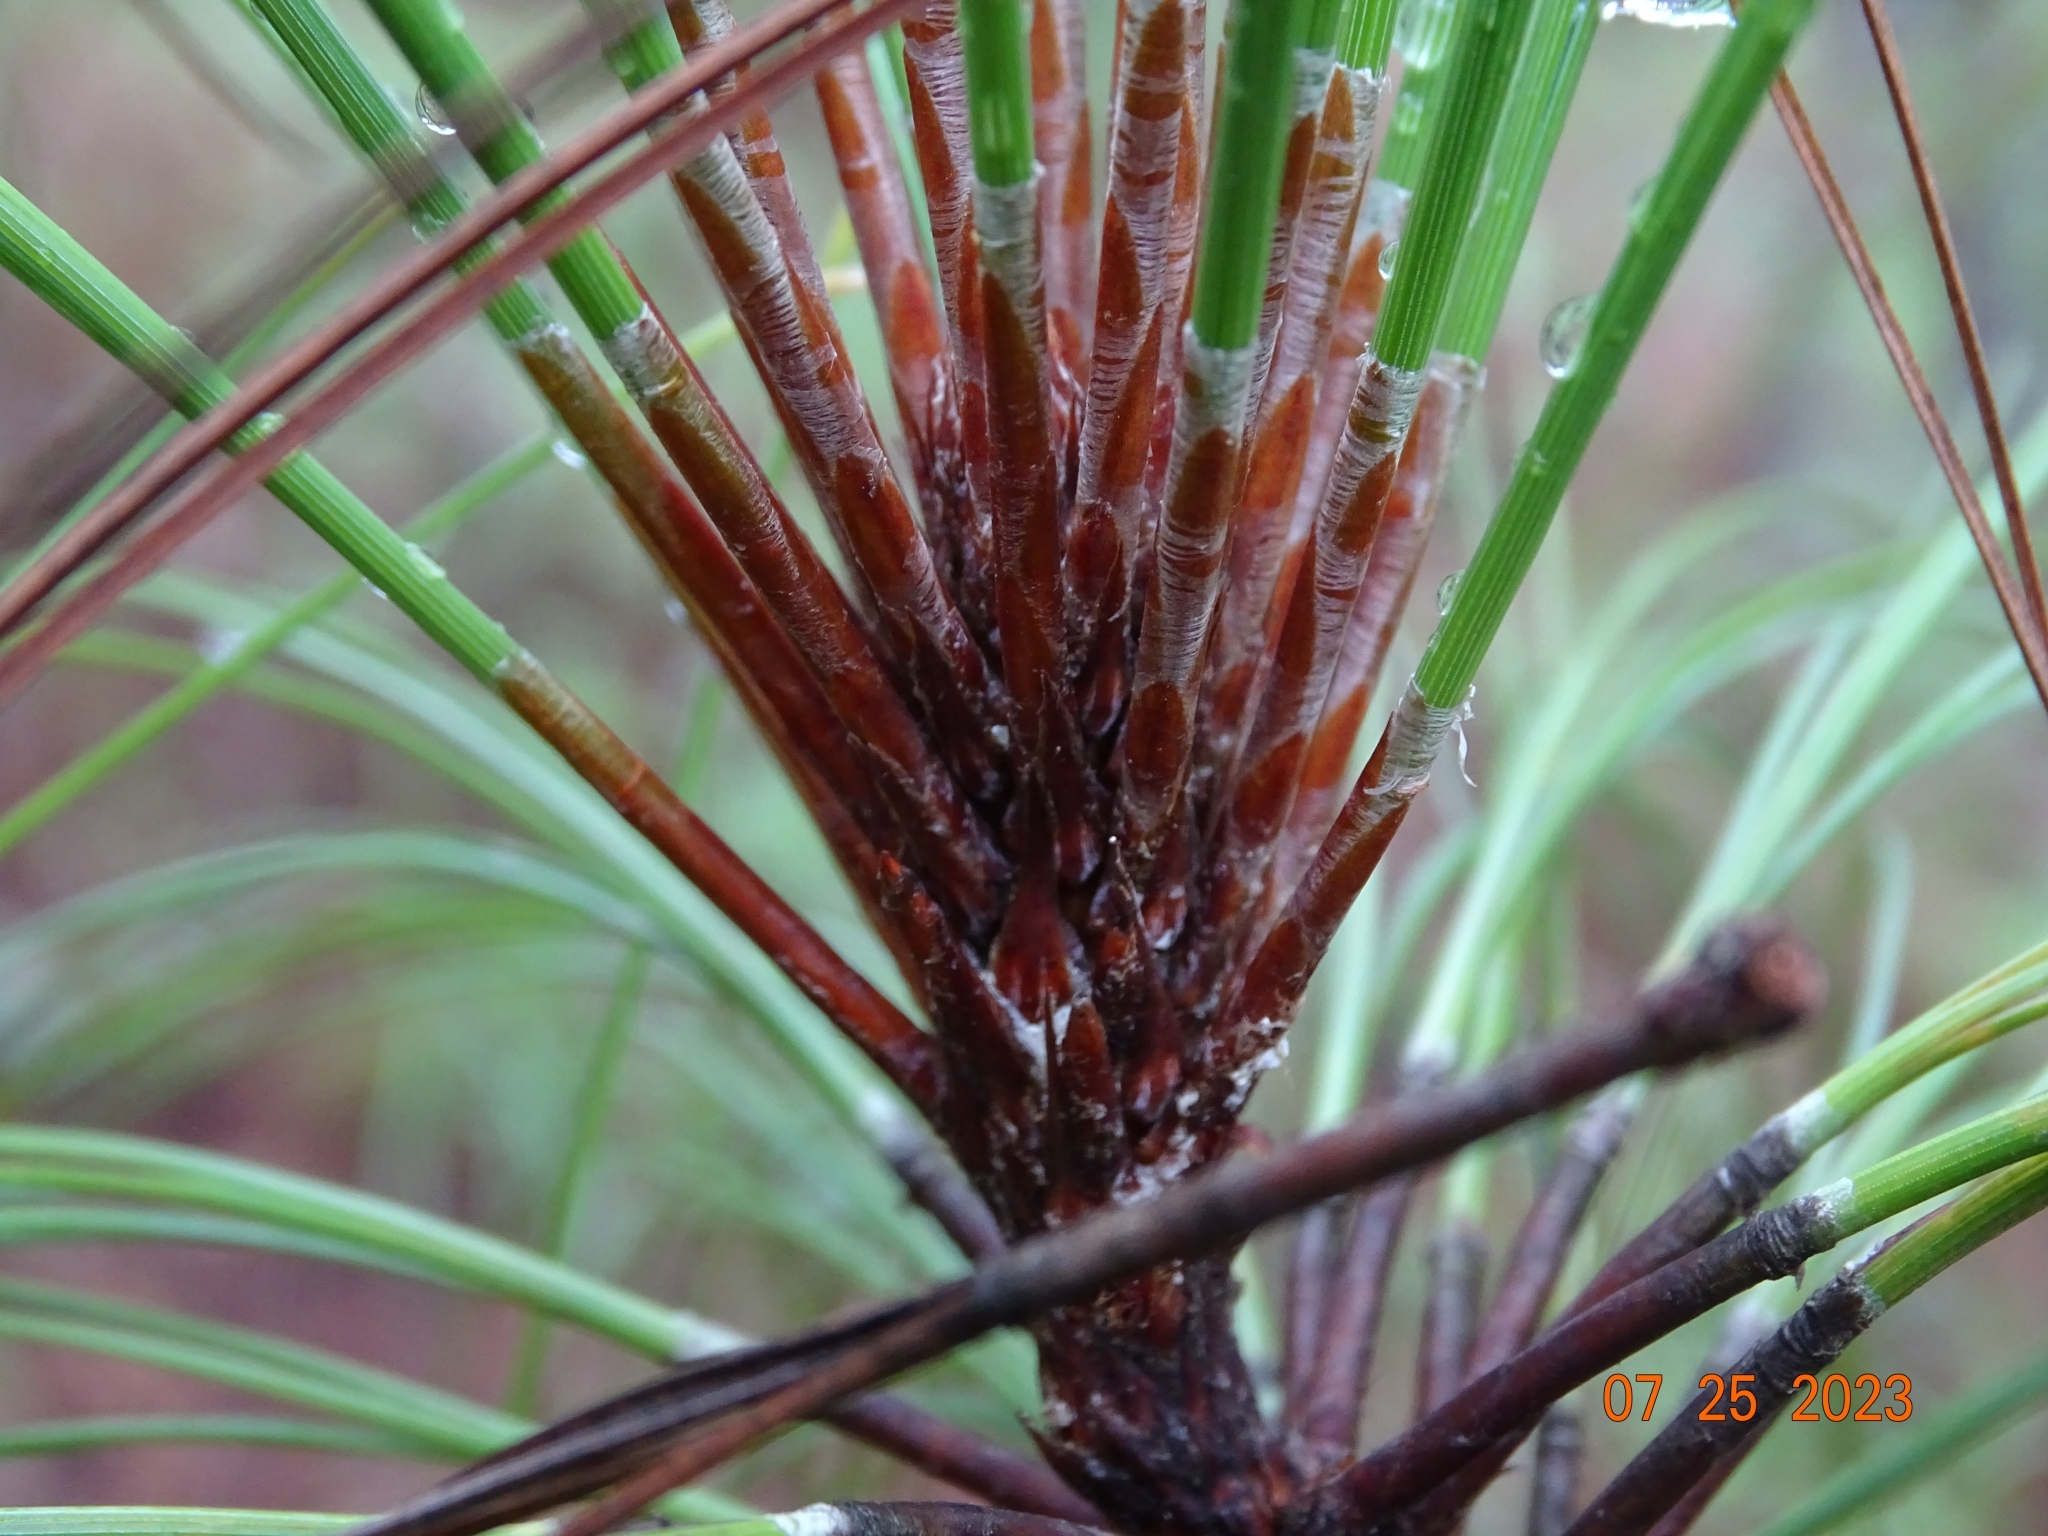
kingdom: Plantae
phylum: Tracheophyta
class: Pinopsida
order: Pinales
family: Pinaceae
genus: Pinus
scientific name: Pinus douglasiana
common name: Douglas pine
